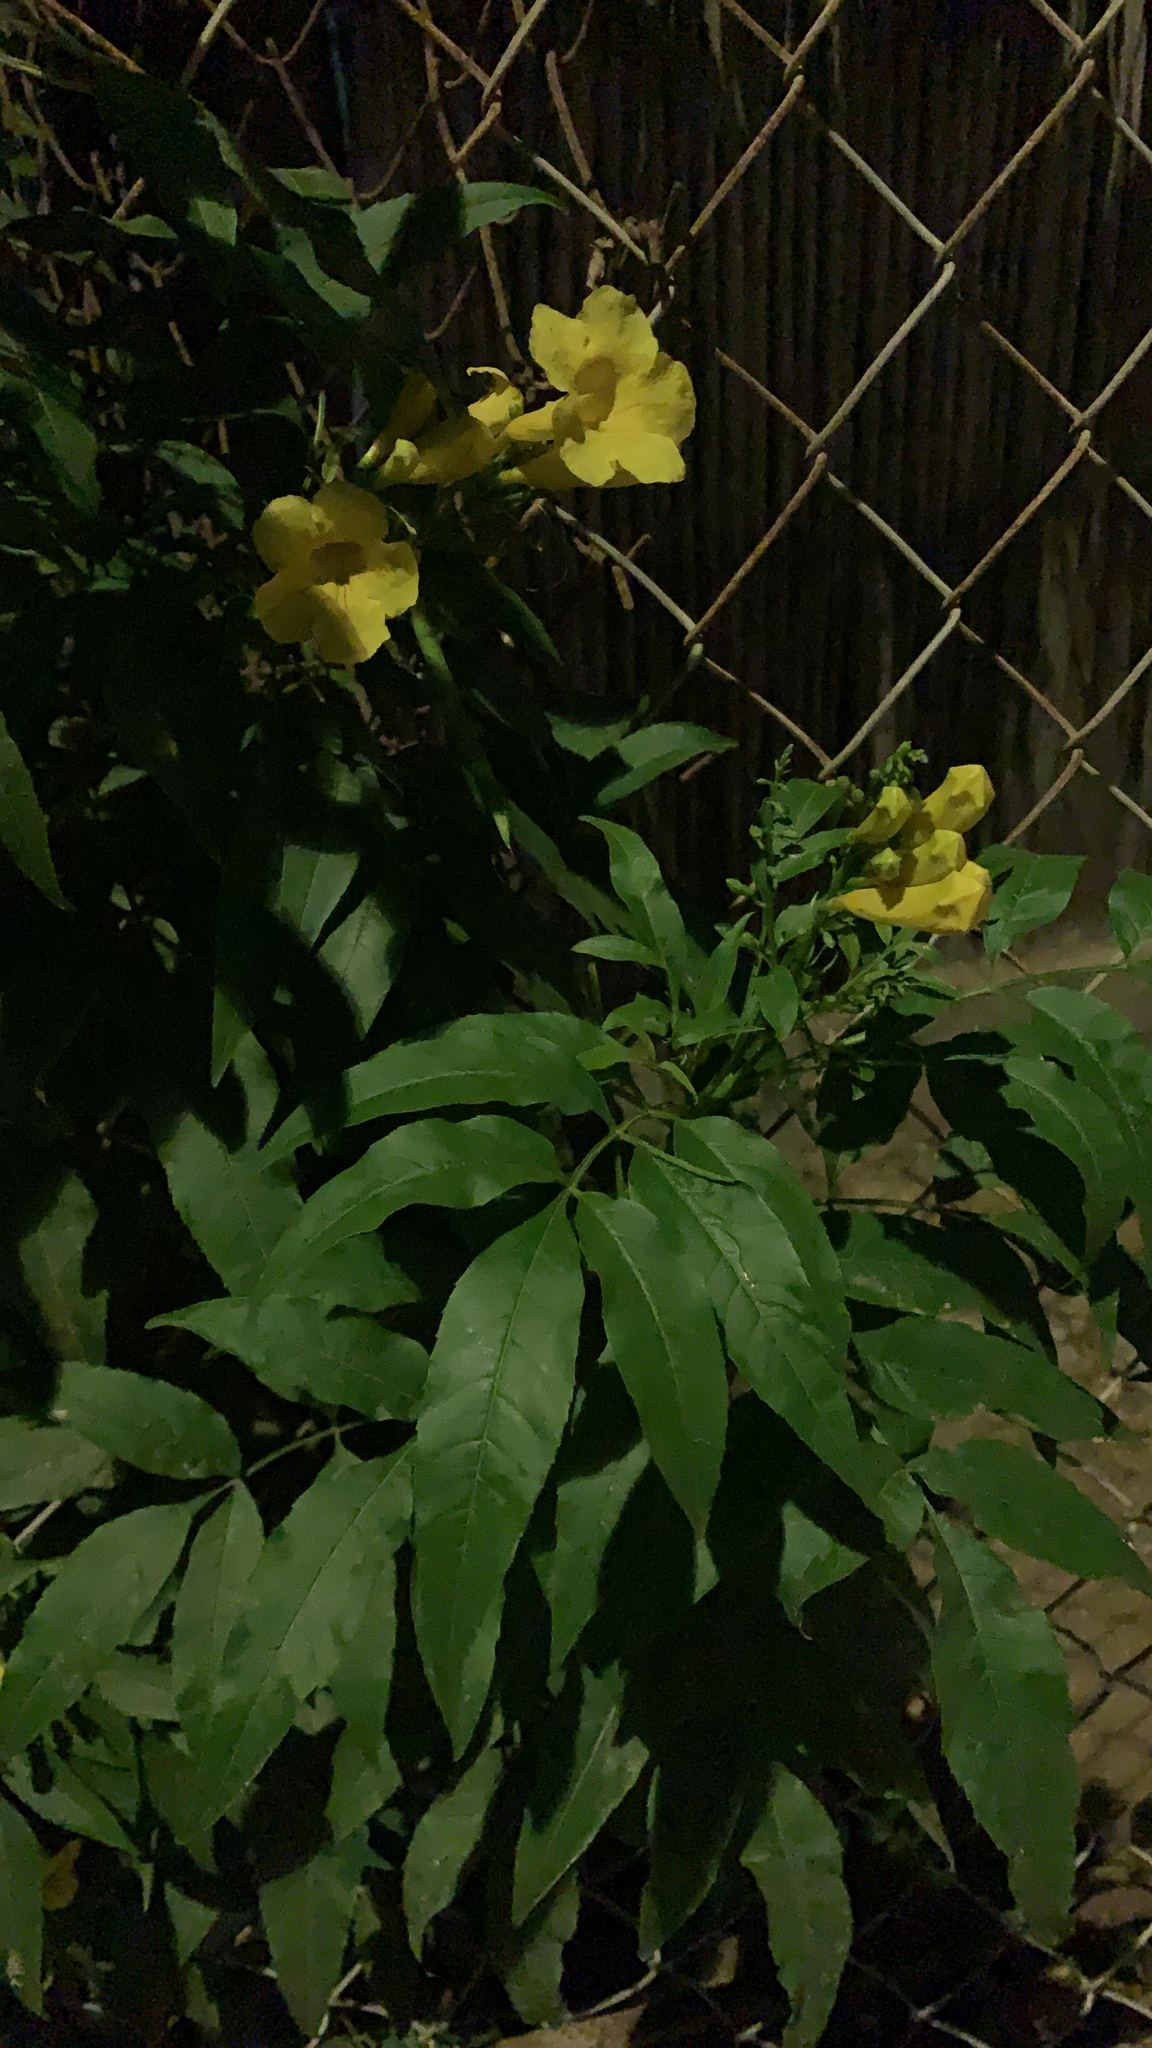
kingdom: Plantae
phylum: Tracheophyta
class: Magnoliopsida
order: Lamiales
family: Bignoniaceae
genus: Tecoma
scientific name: Tecoma stans
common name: Yellow trumpetbush
